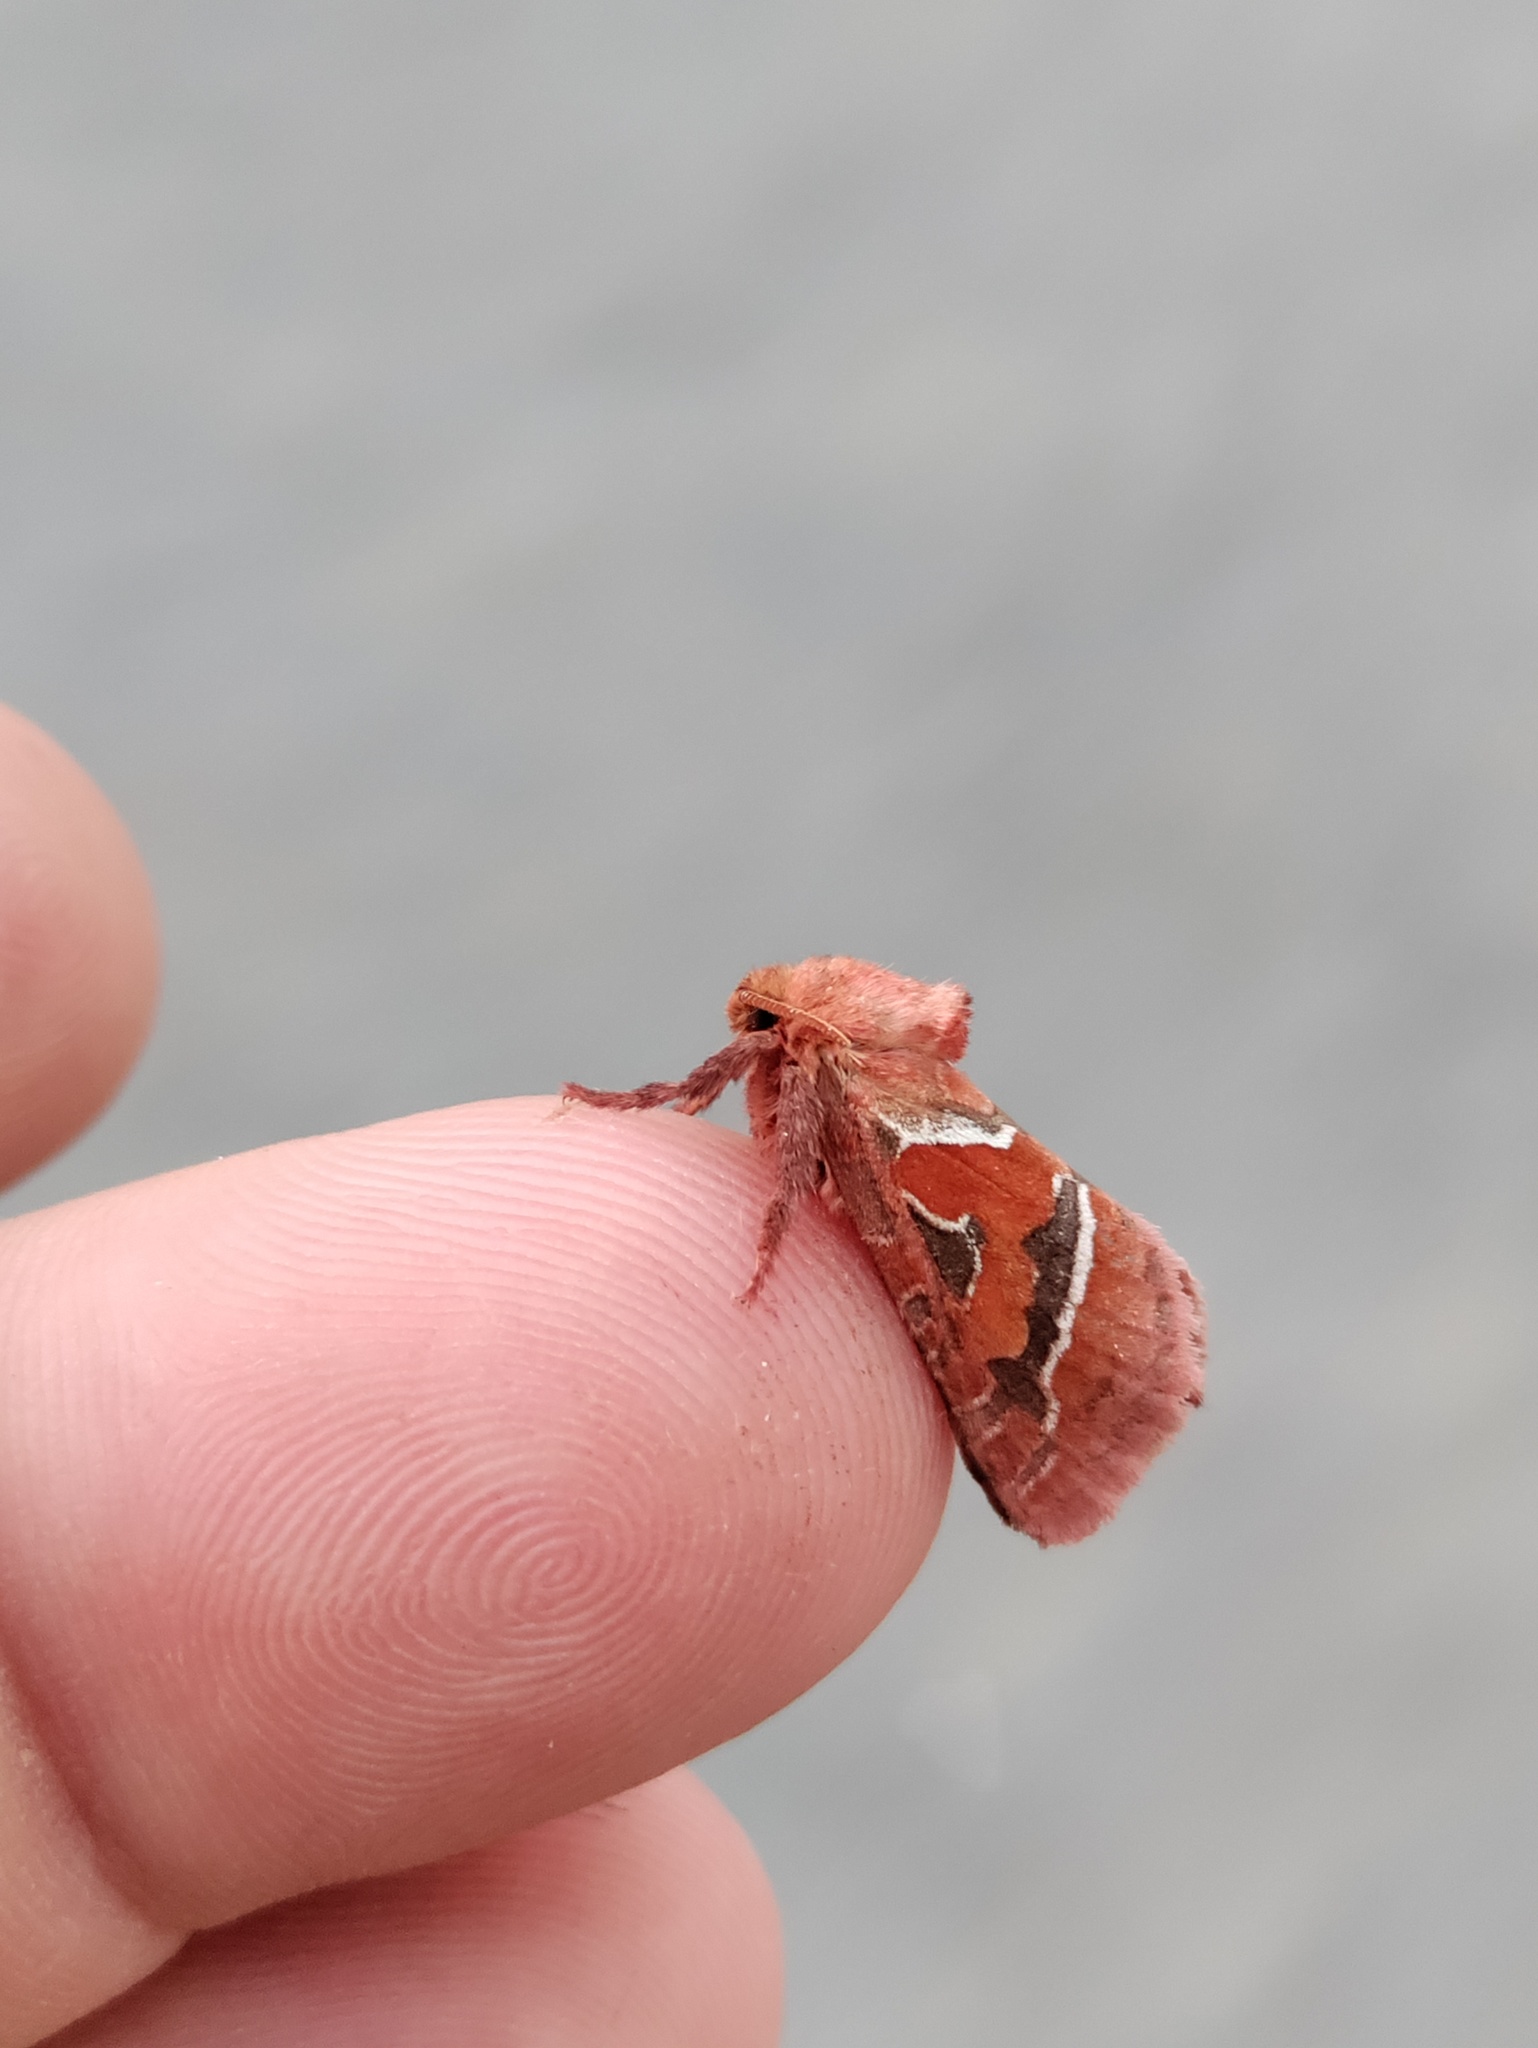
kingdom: Animalia
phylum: Arthropoda
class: Insecta
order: Lepidoptera
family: Hepialidae
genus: Triodia
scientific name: Triodia sylvina
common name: Orange swift
